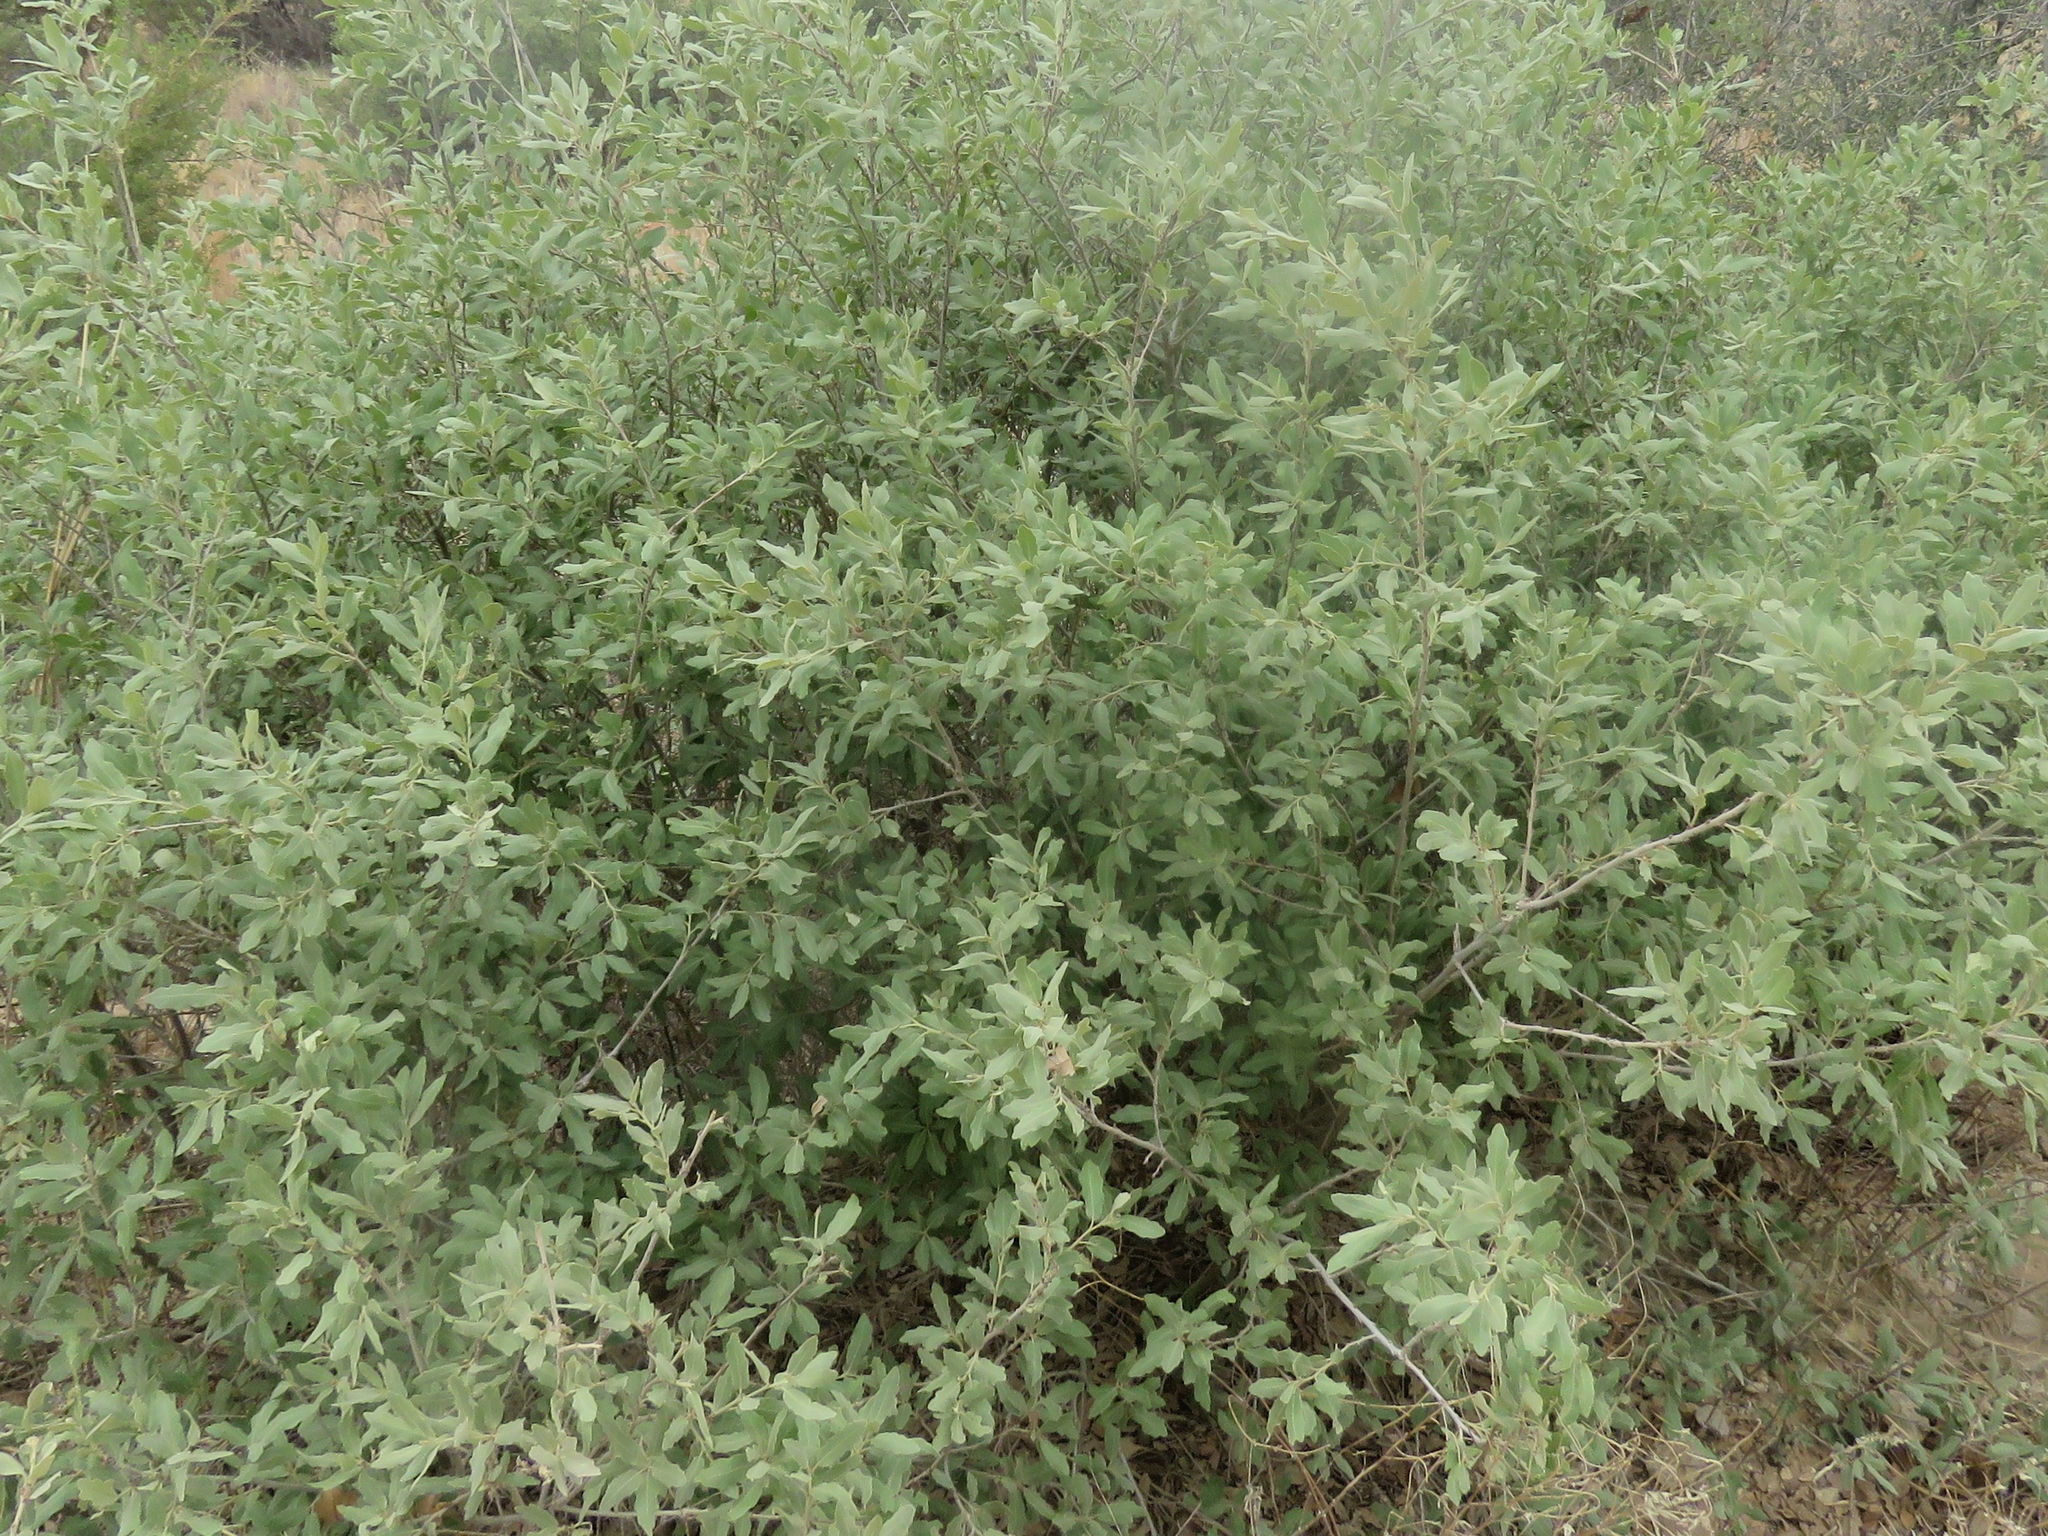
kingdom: Plantae
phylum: Tracheophyta
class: Magnoliopsida
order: Fagales
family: Fagaceae
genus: Quercus
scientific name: Quercus havardii
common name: Shinnery oak
